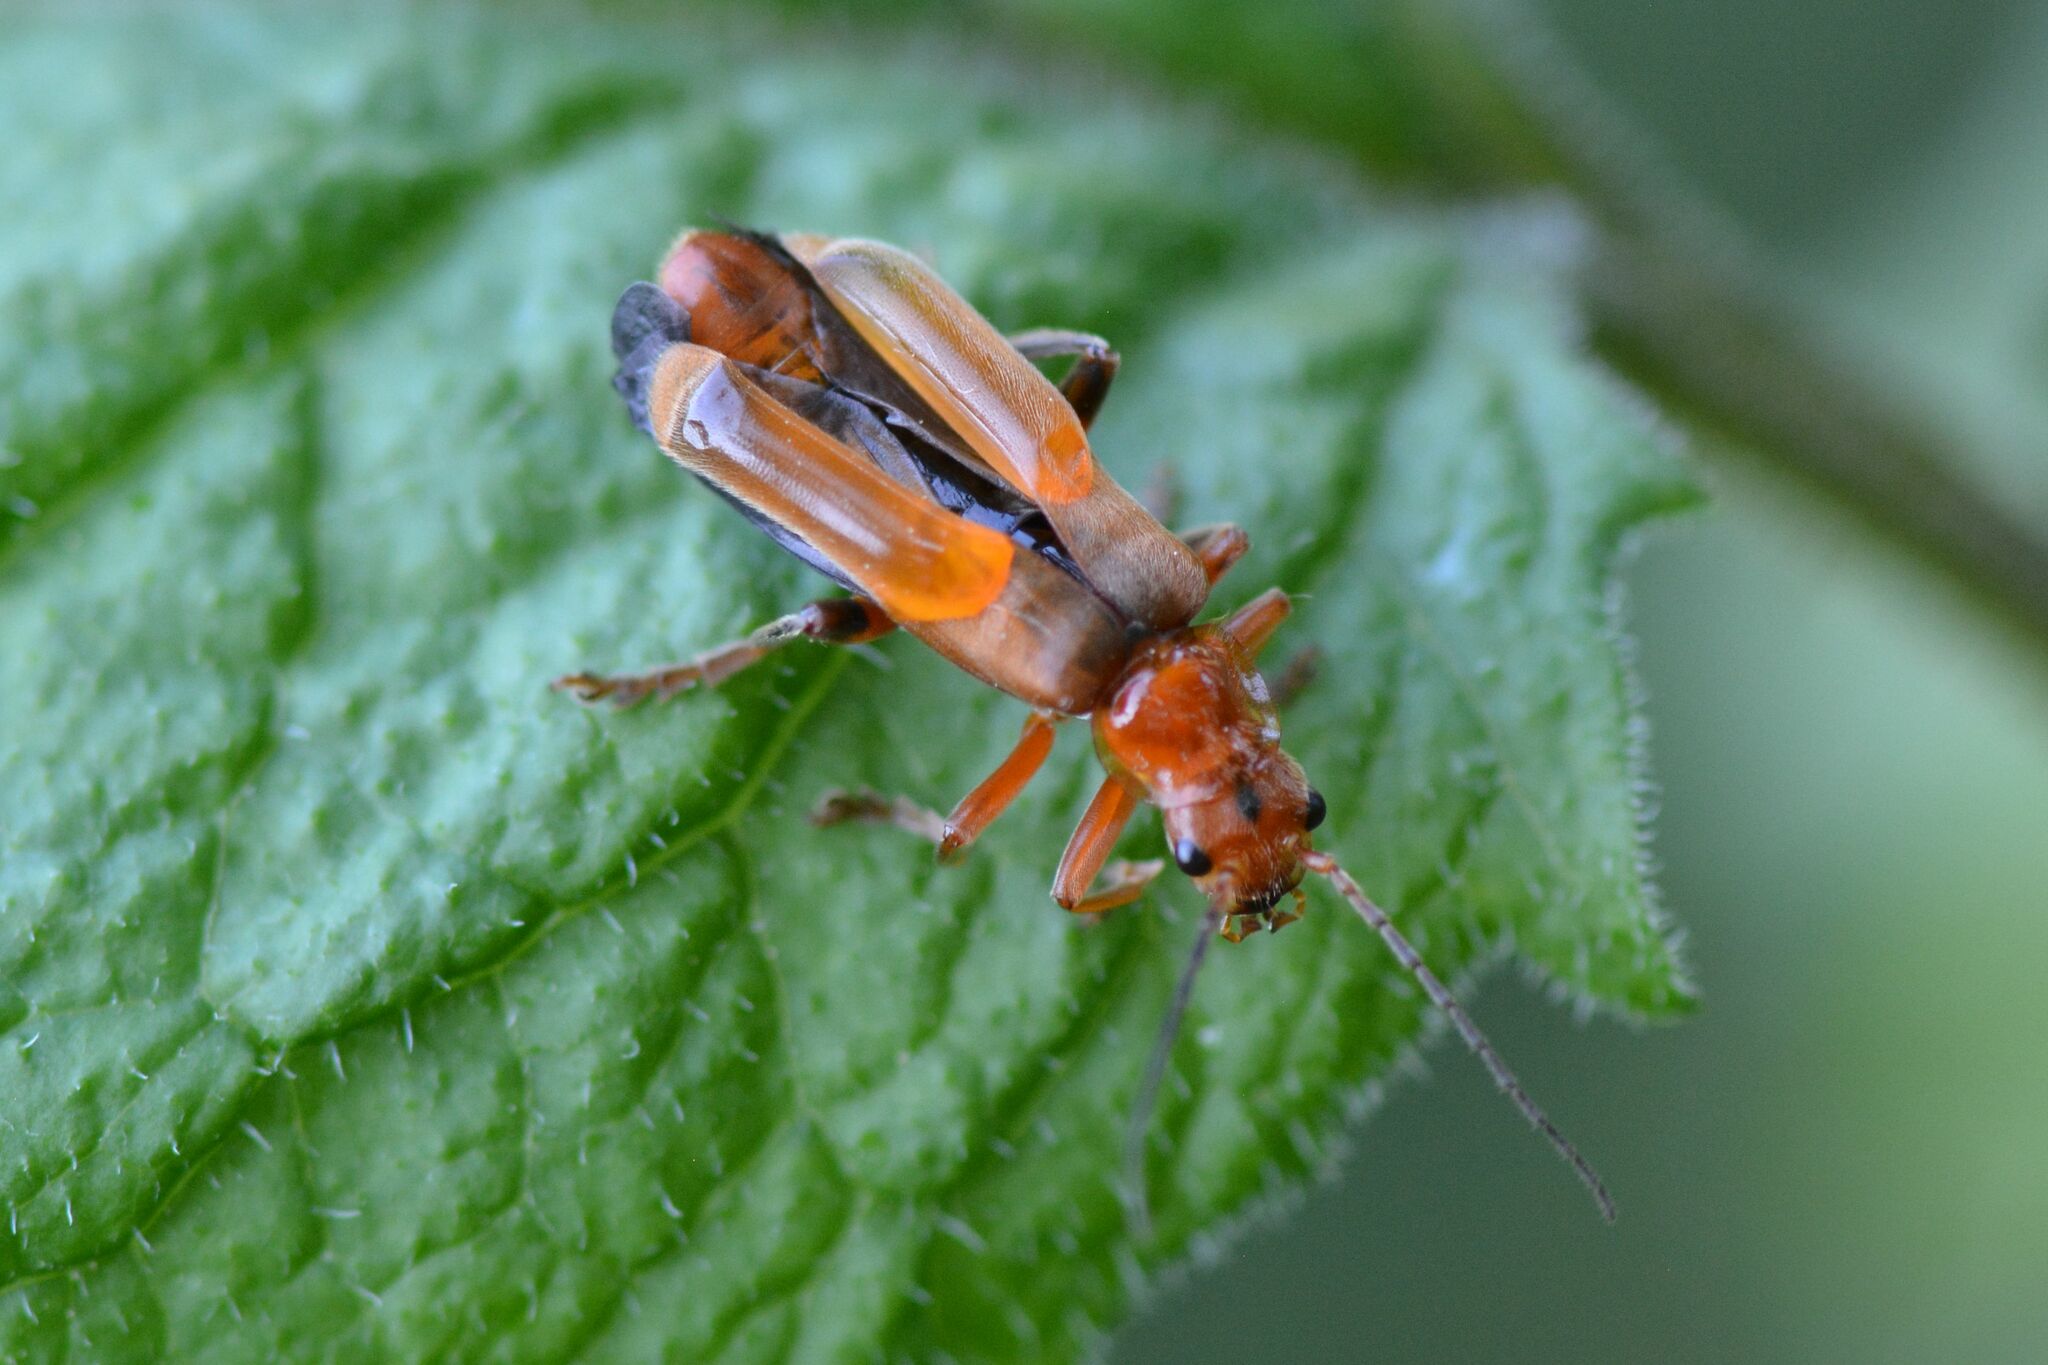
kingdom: Animalia
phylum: Arthropoda
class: Insecta
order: Coleoptera
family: Cantharidae
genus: Cantharis
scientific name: Cantharis livida
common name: Livid soldier beetle
